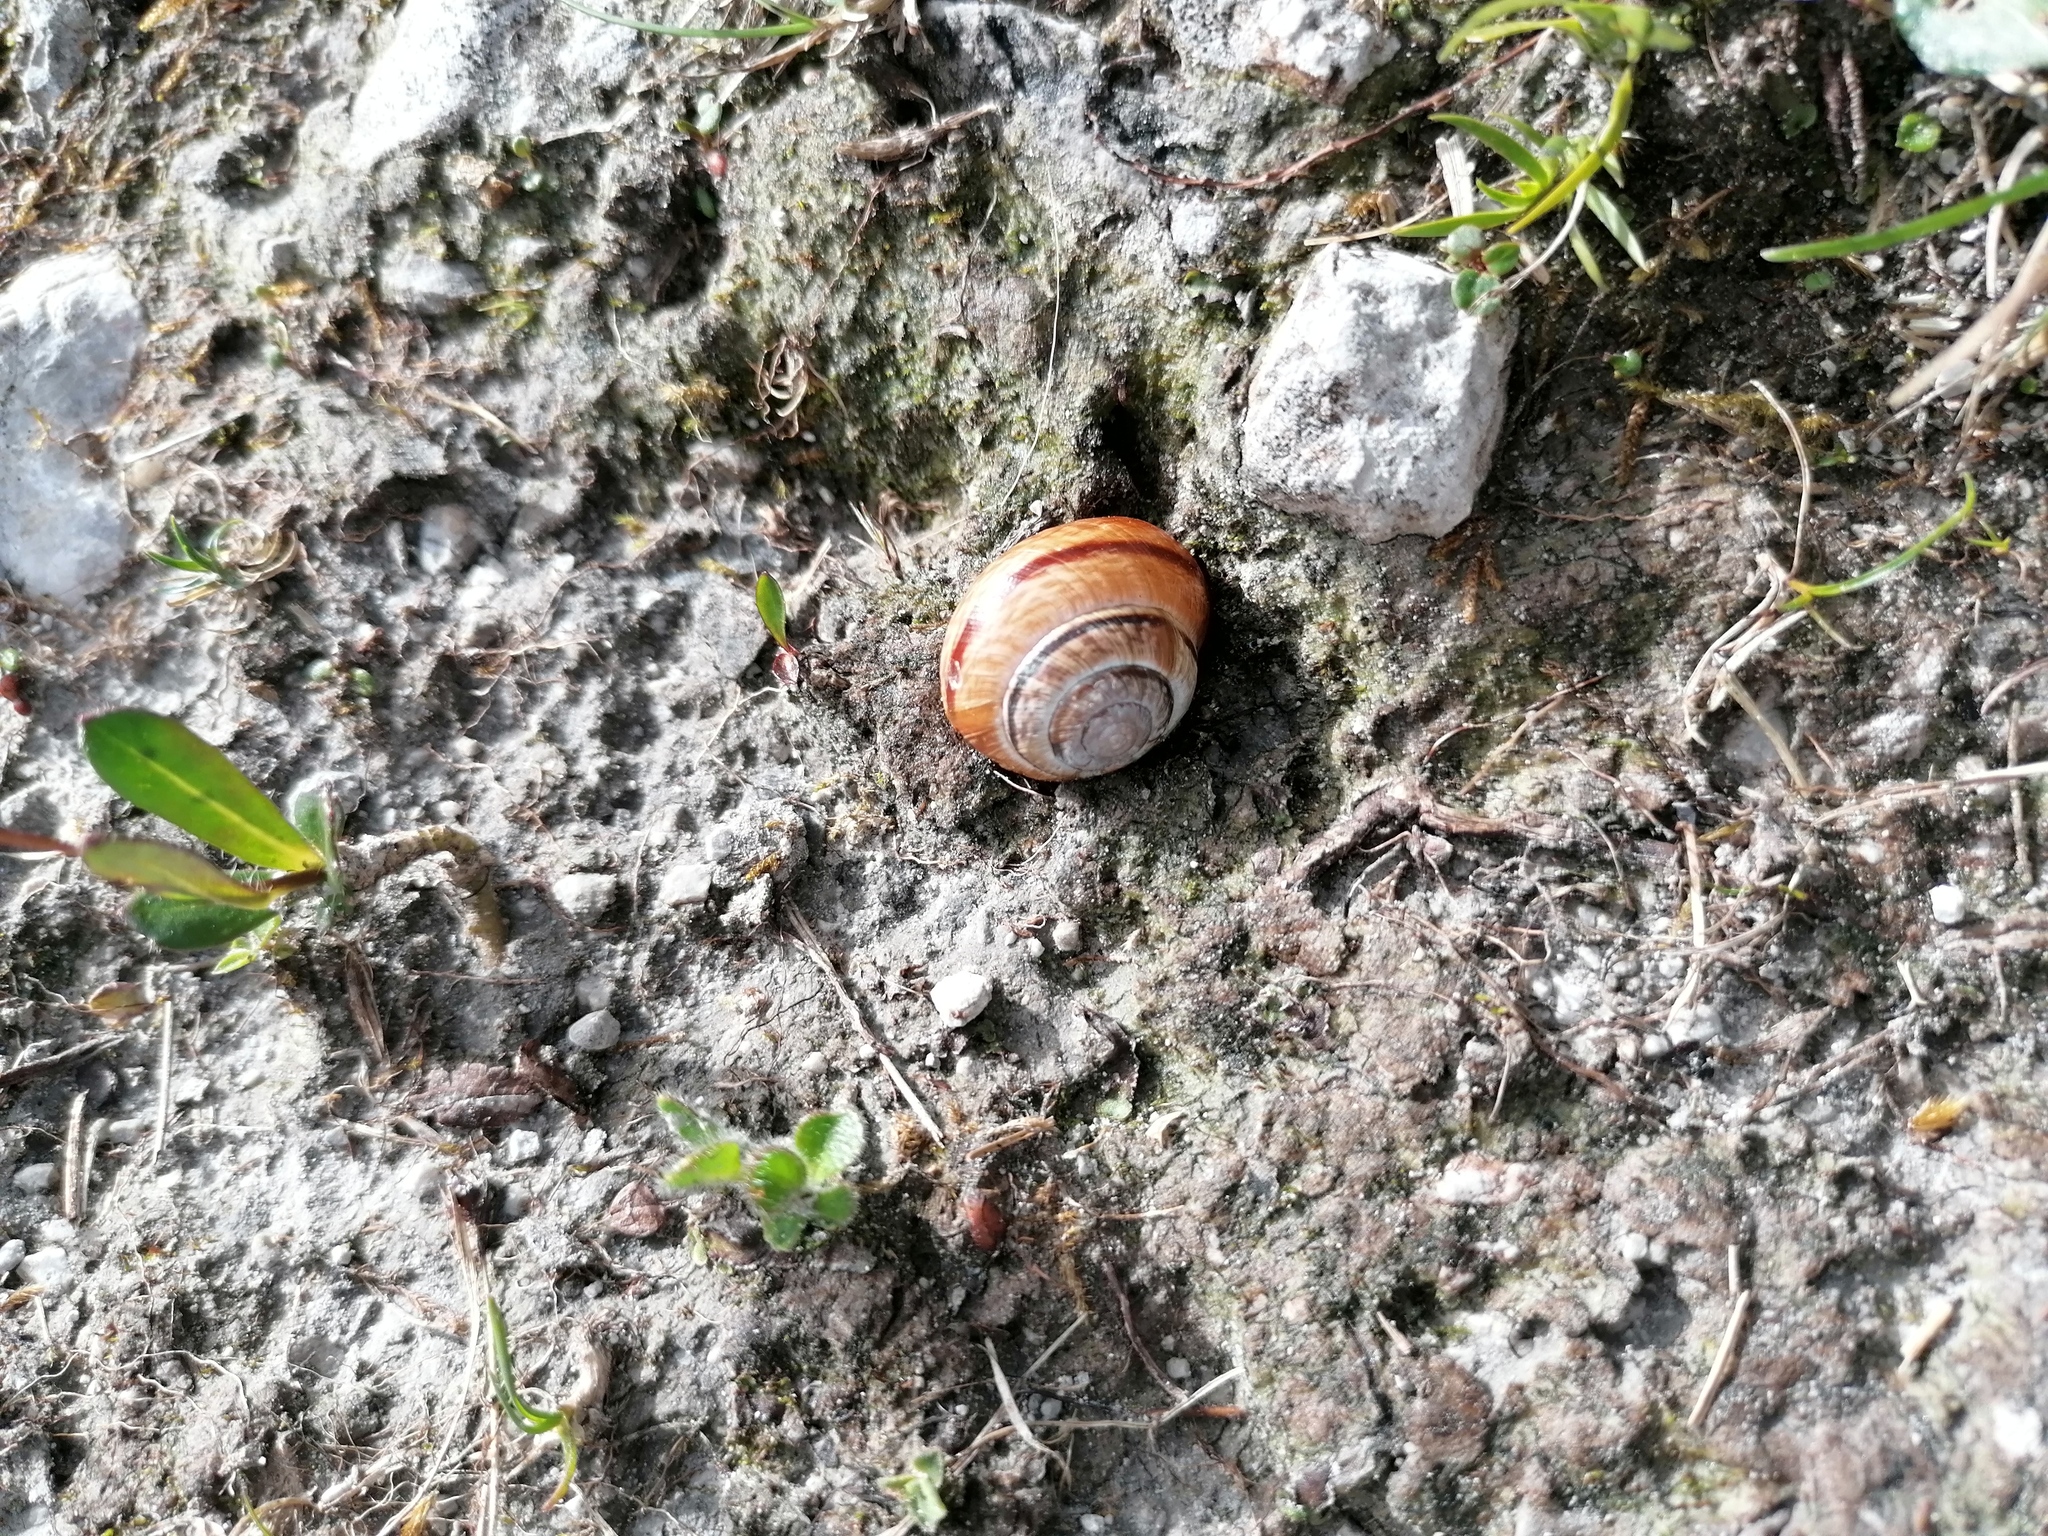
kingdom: Animalia
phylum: Mollusca
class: Gastropoda
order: Stylommatophora
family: Helicidae
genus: Arianta
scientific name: Arianta arbustorum
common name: Copse snail
